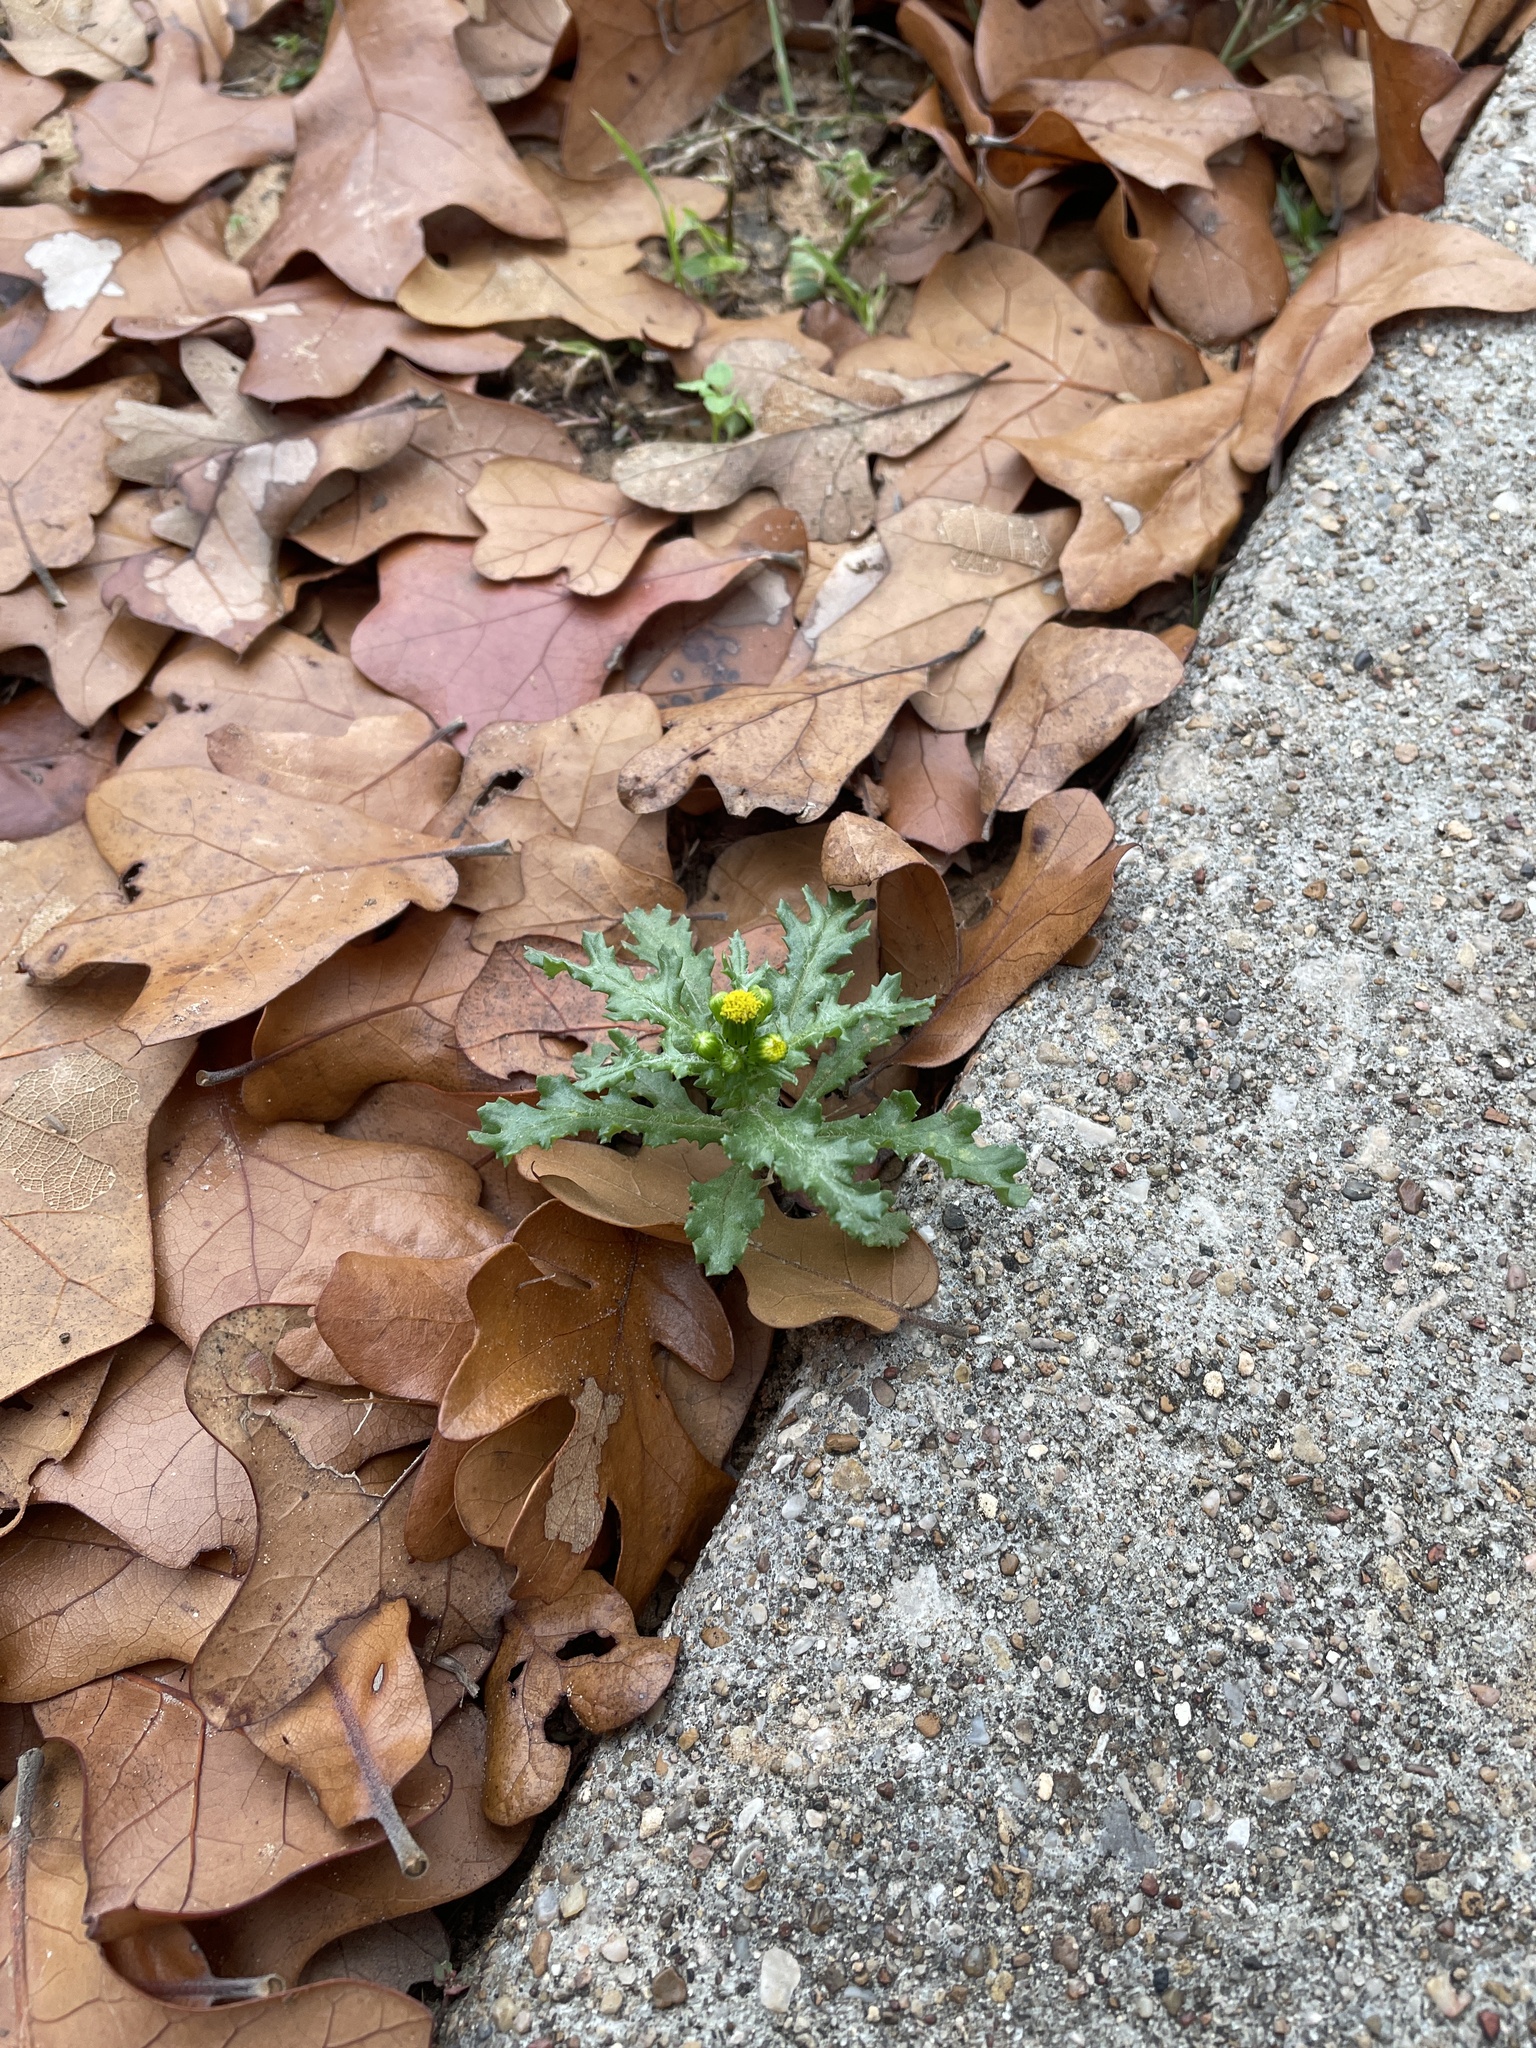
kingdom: Plantae
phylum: Tracheophyta
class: Magnoliopsida
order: Asterales
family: Asteraceae
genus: Senecio
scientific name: Senecio vulgaris
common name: Old-man-in-the-spring
